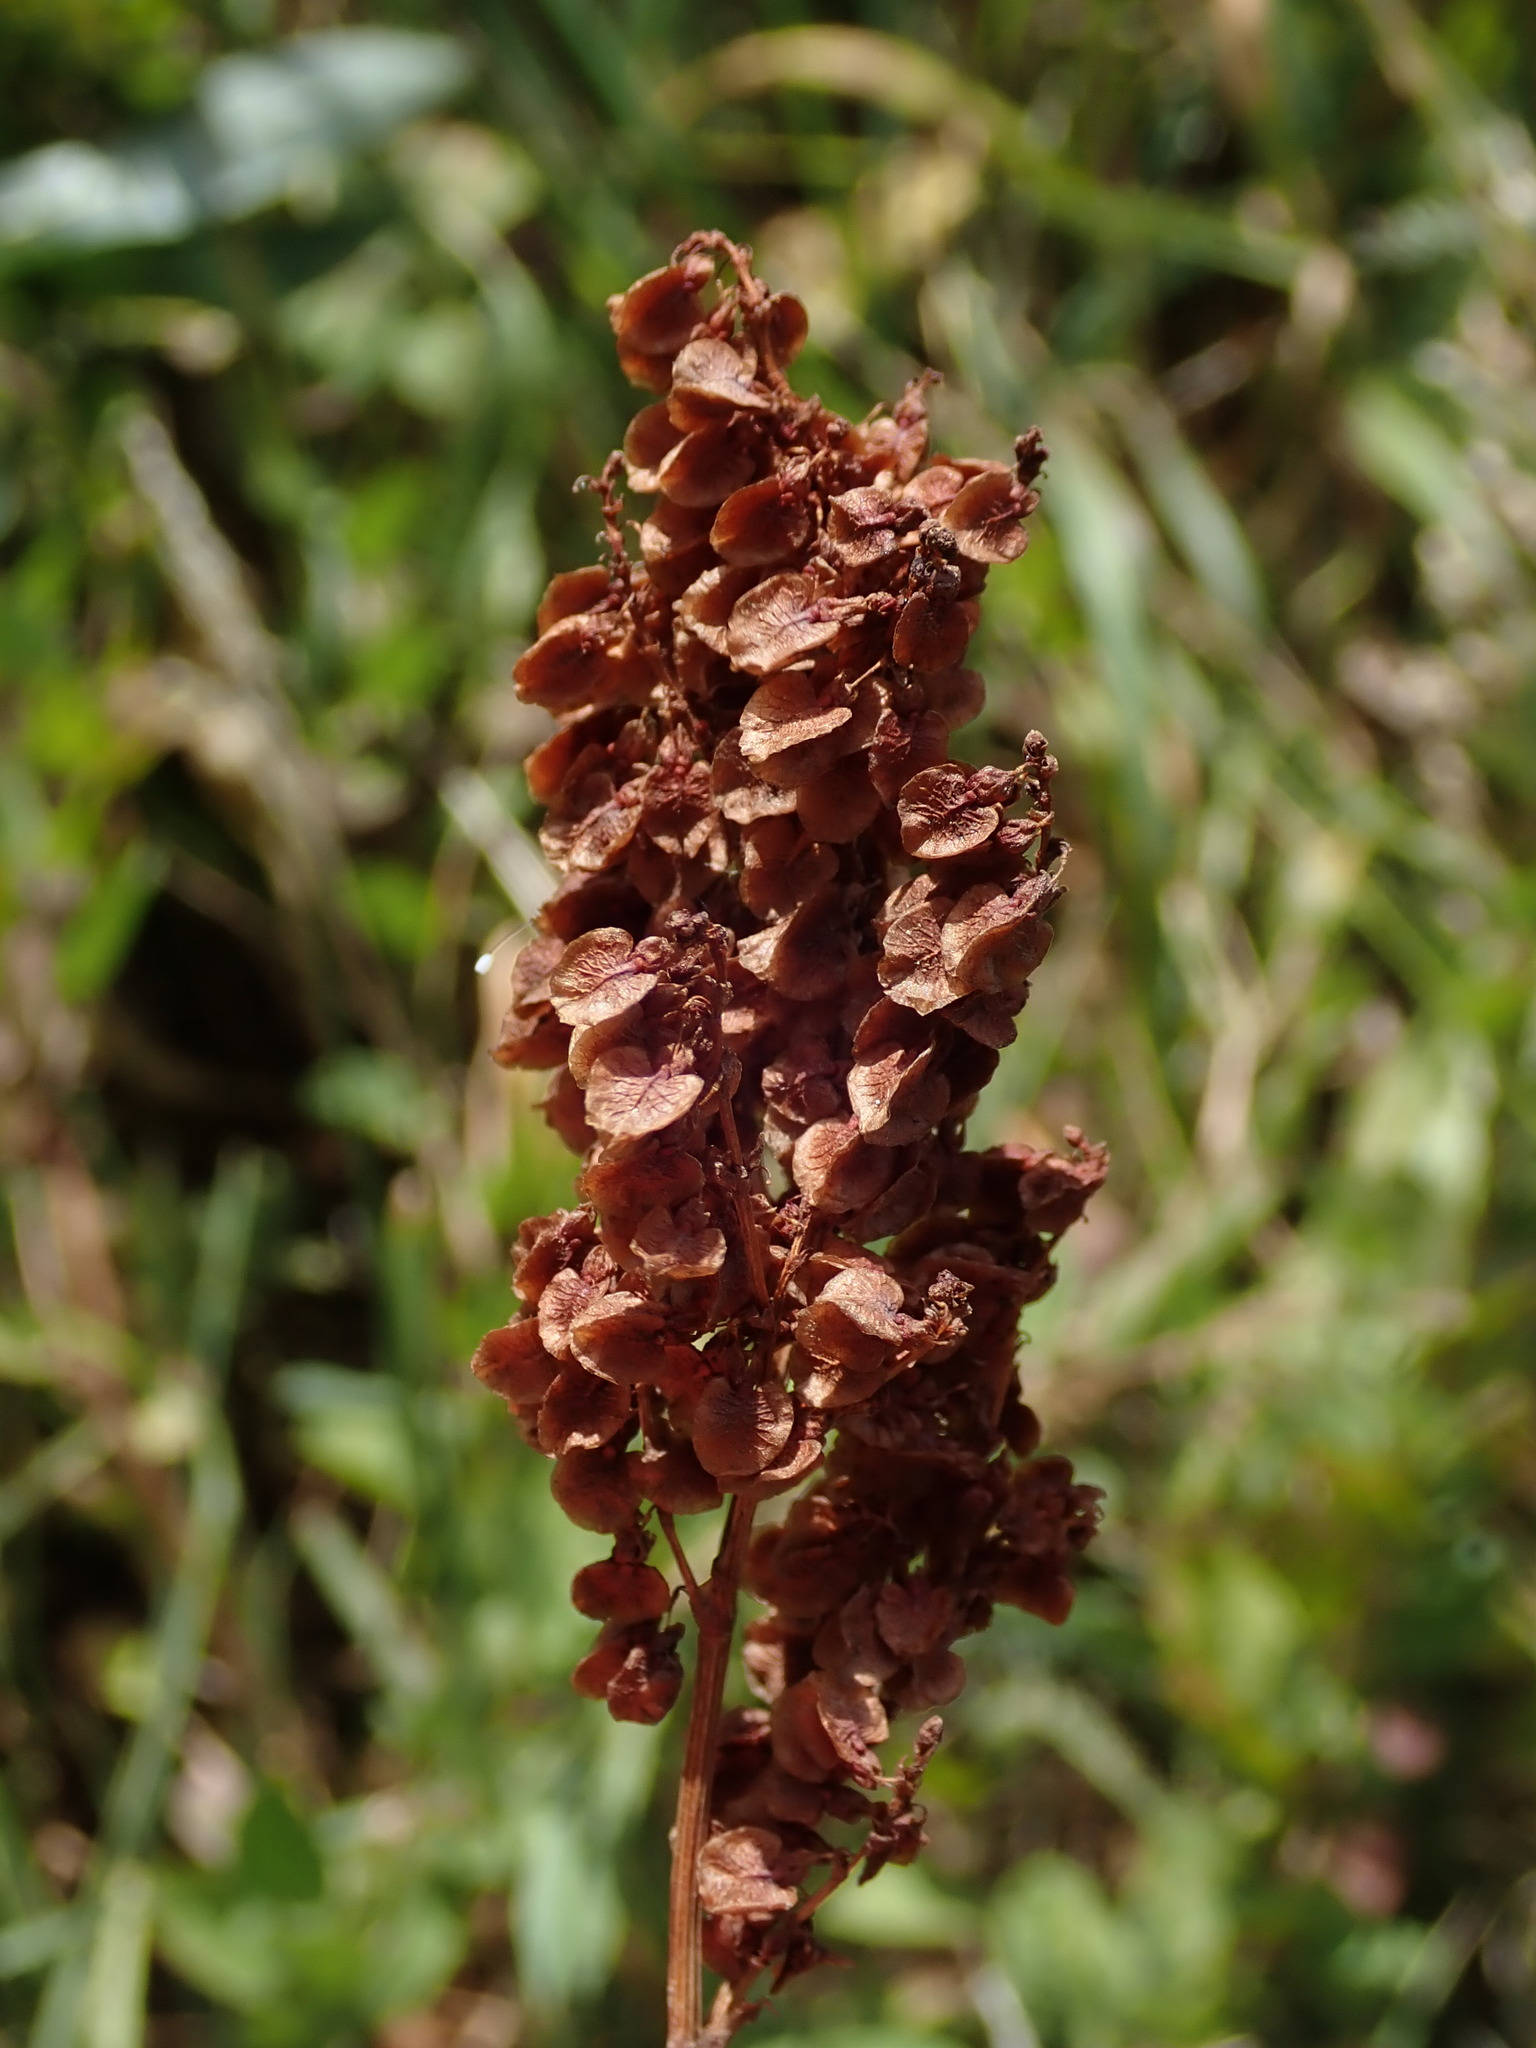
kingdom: Plantae
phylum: Tracheophyta
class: Magnoliopsida
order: Caryophyllales
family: Polygonaceae
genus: Rumex
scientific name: Rumex acetosa
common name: Garden sorrel
